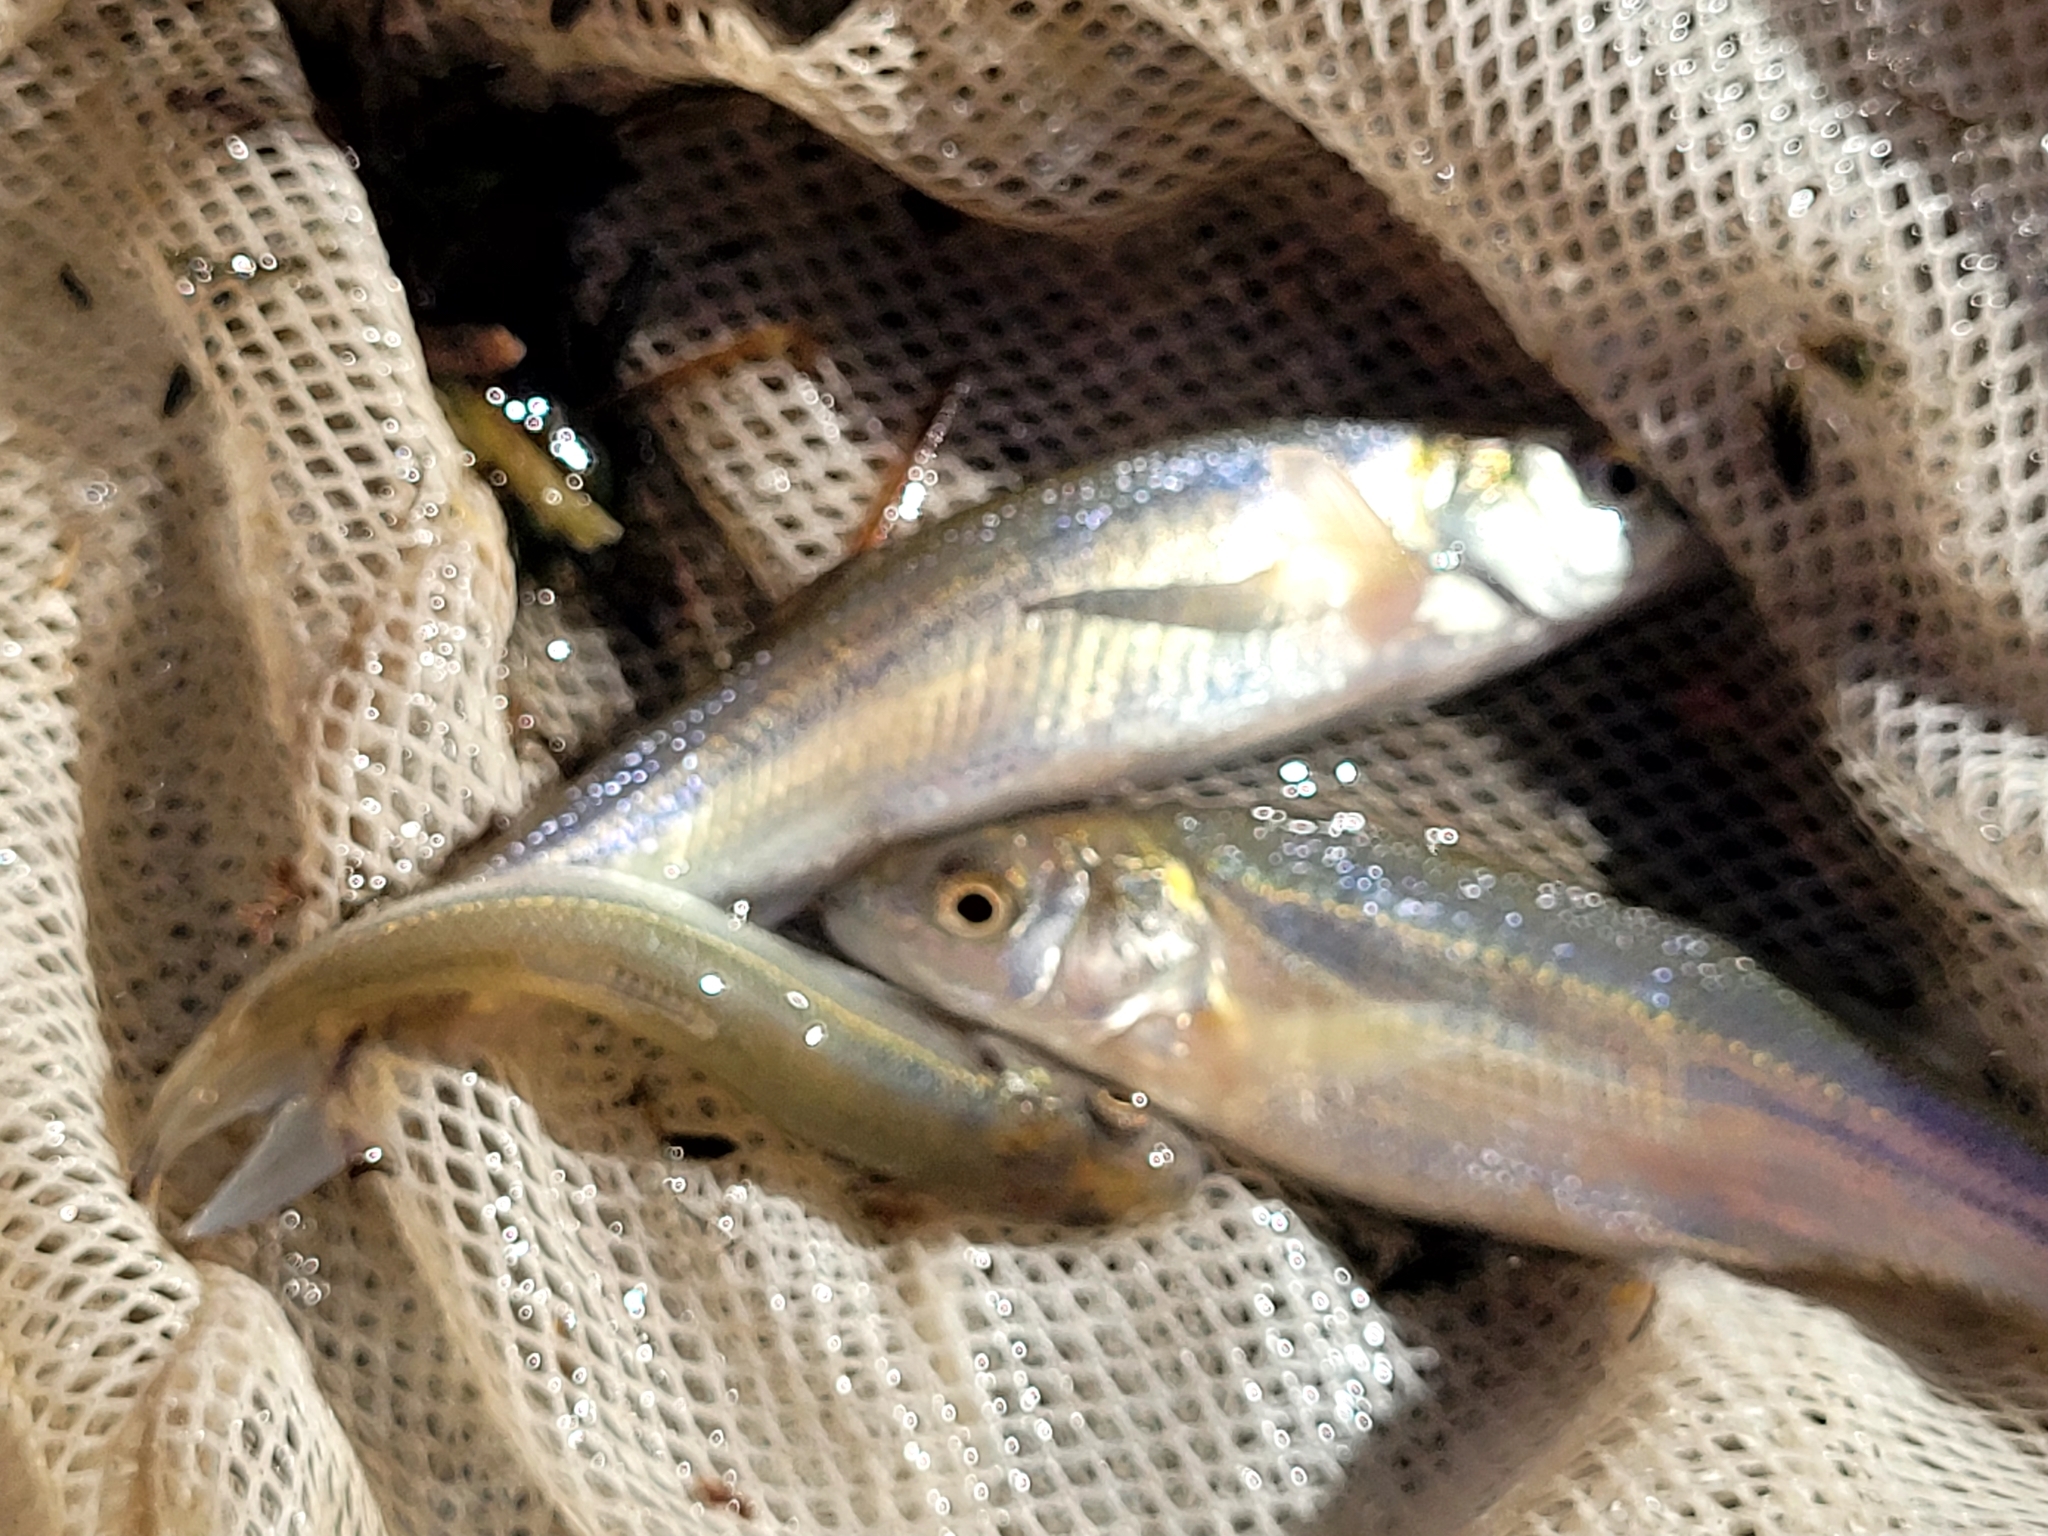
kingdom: Animalia
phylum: Chordata
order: Cypriniformes
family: Cyprinidae
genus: Couesius
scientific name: Couesius plumbeus
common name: Lake chub
